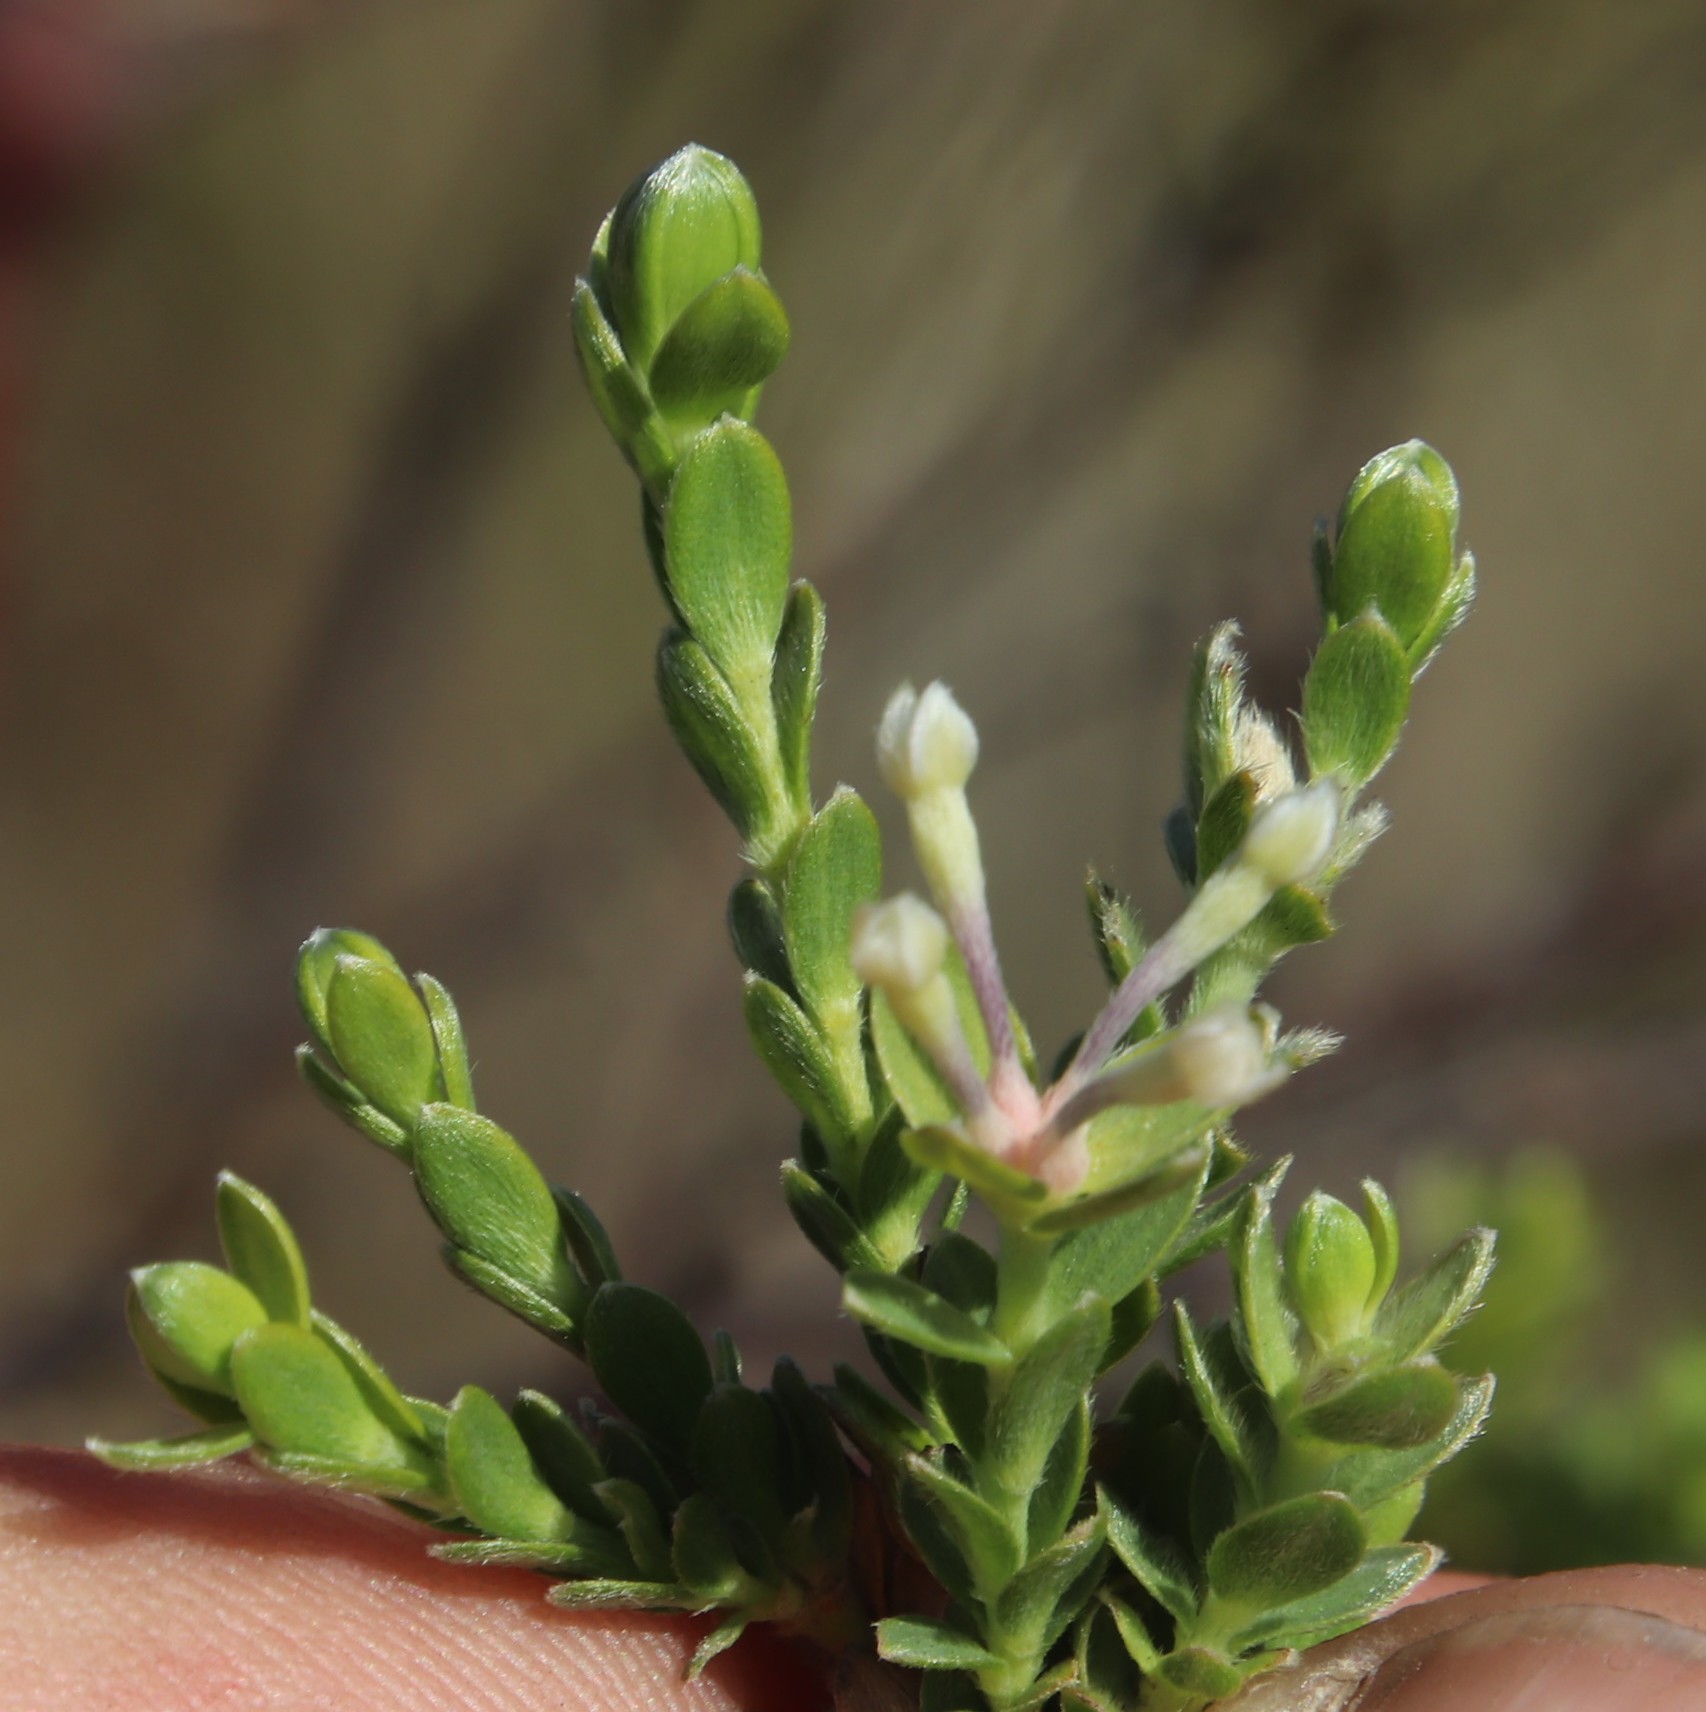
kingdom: Plantae
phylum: Tracheophyta
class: Magnoliopsida
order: Malvales
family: Thymelaeaceae
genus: Gnidia
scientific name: Gnidia sericea
